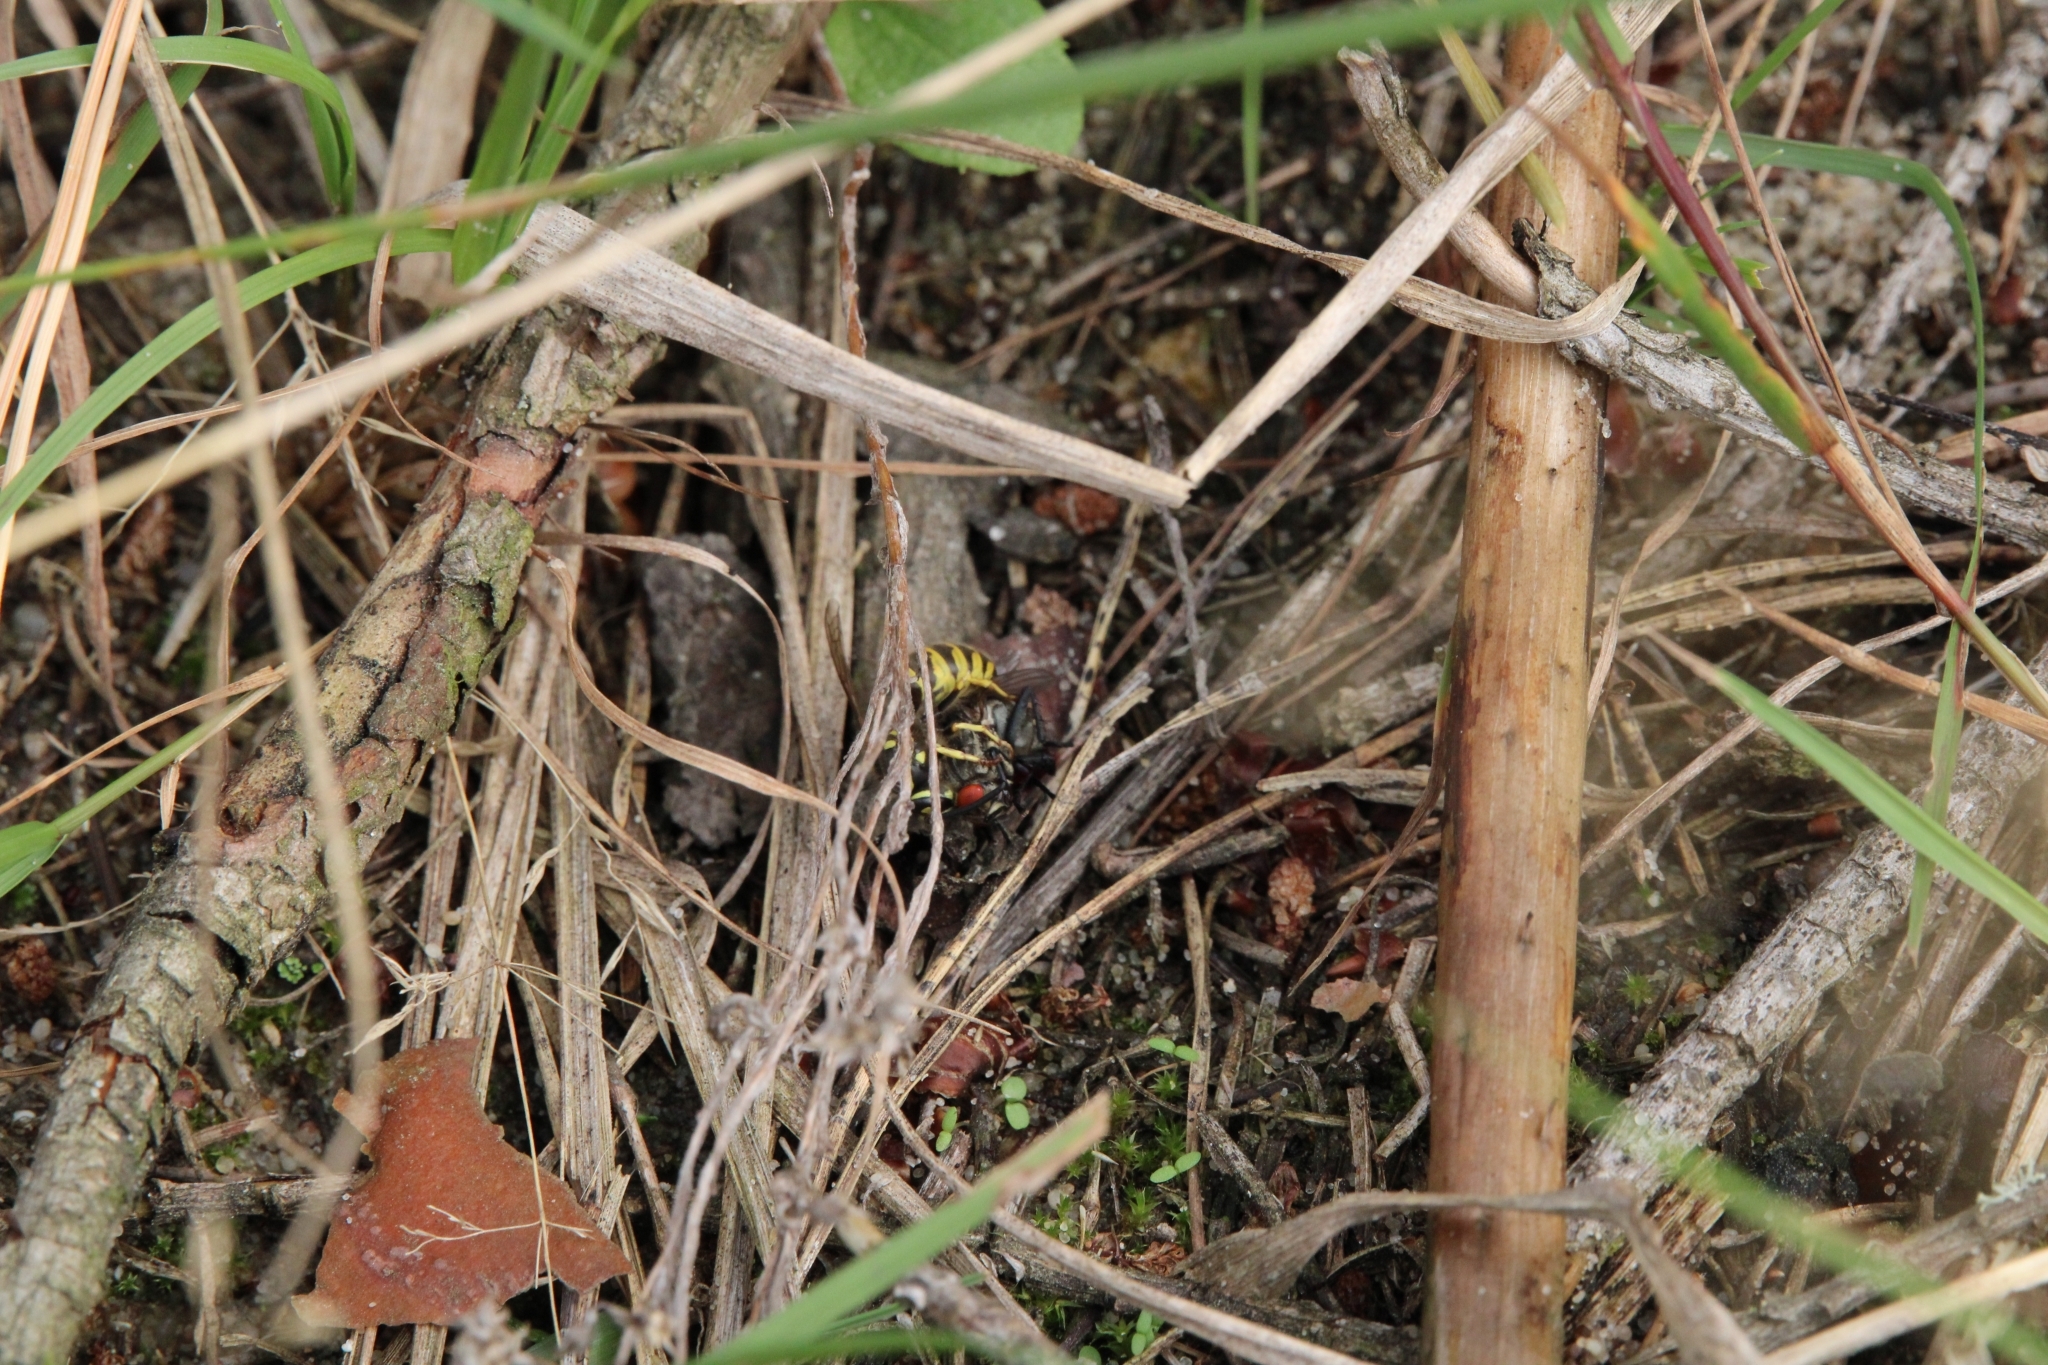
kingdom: Animalia
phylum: Arthropoda
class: Insecta
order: Hymenoptera
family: Vespidae
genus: Vespula
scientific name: Vespula vulgaris
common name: Common wasp
